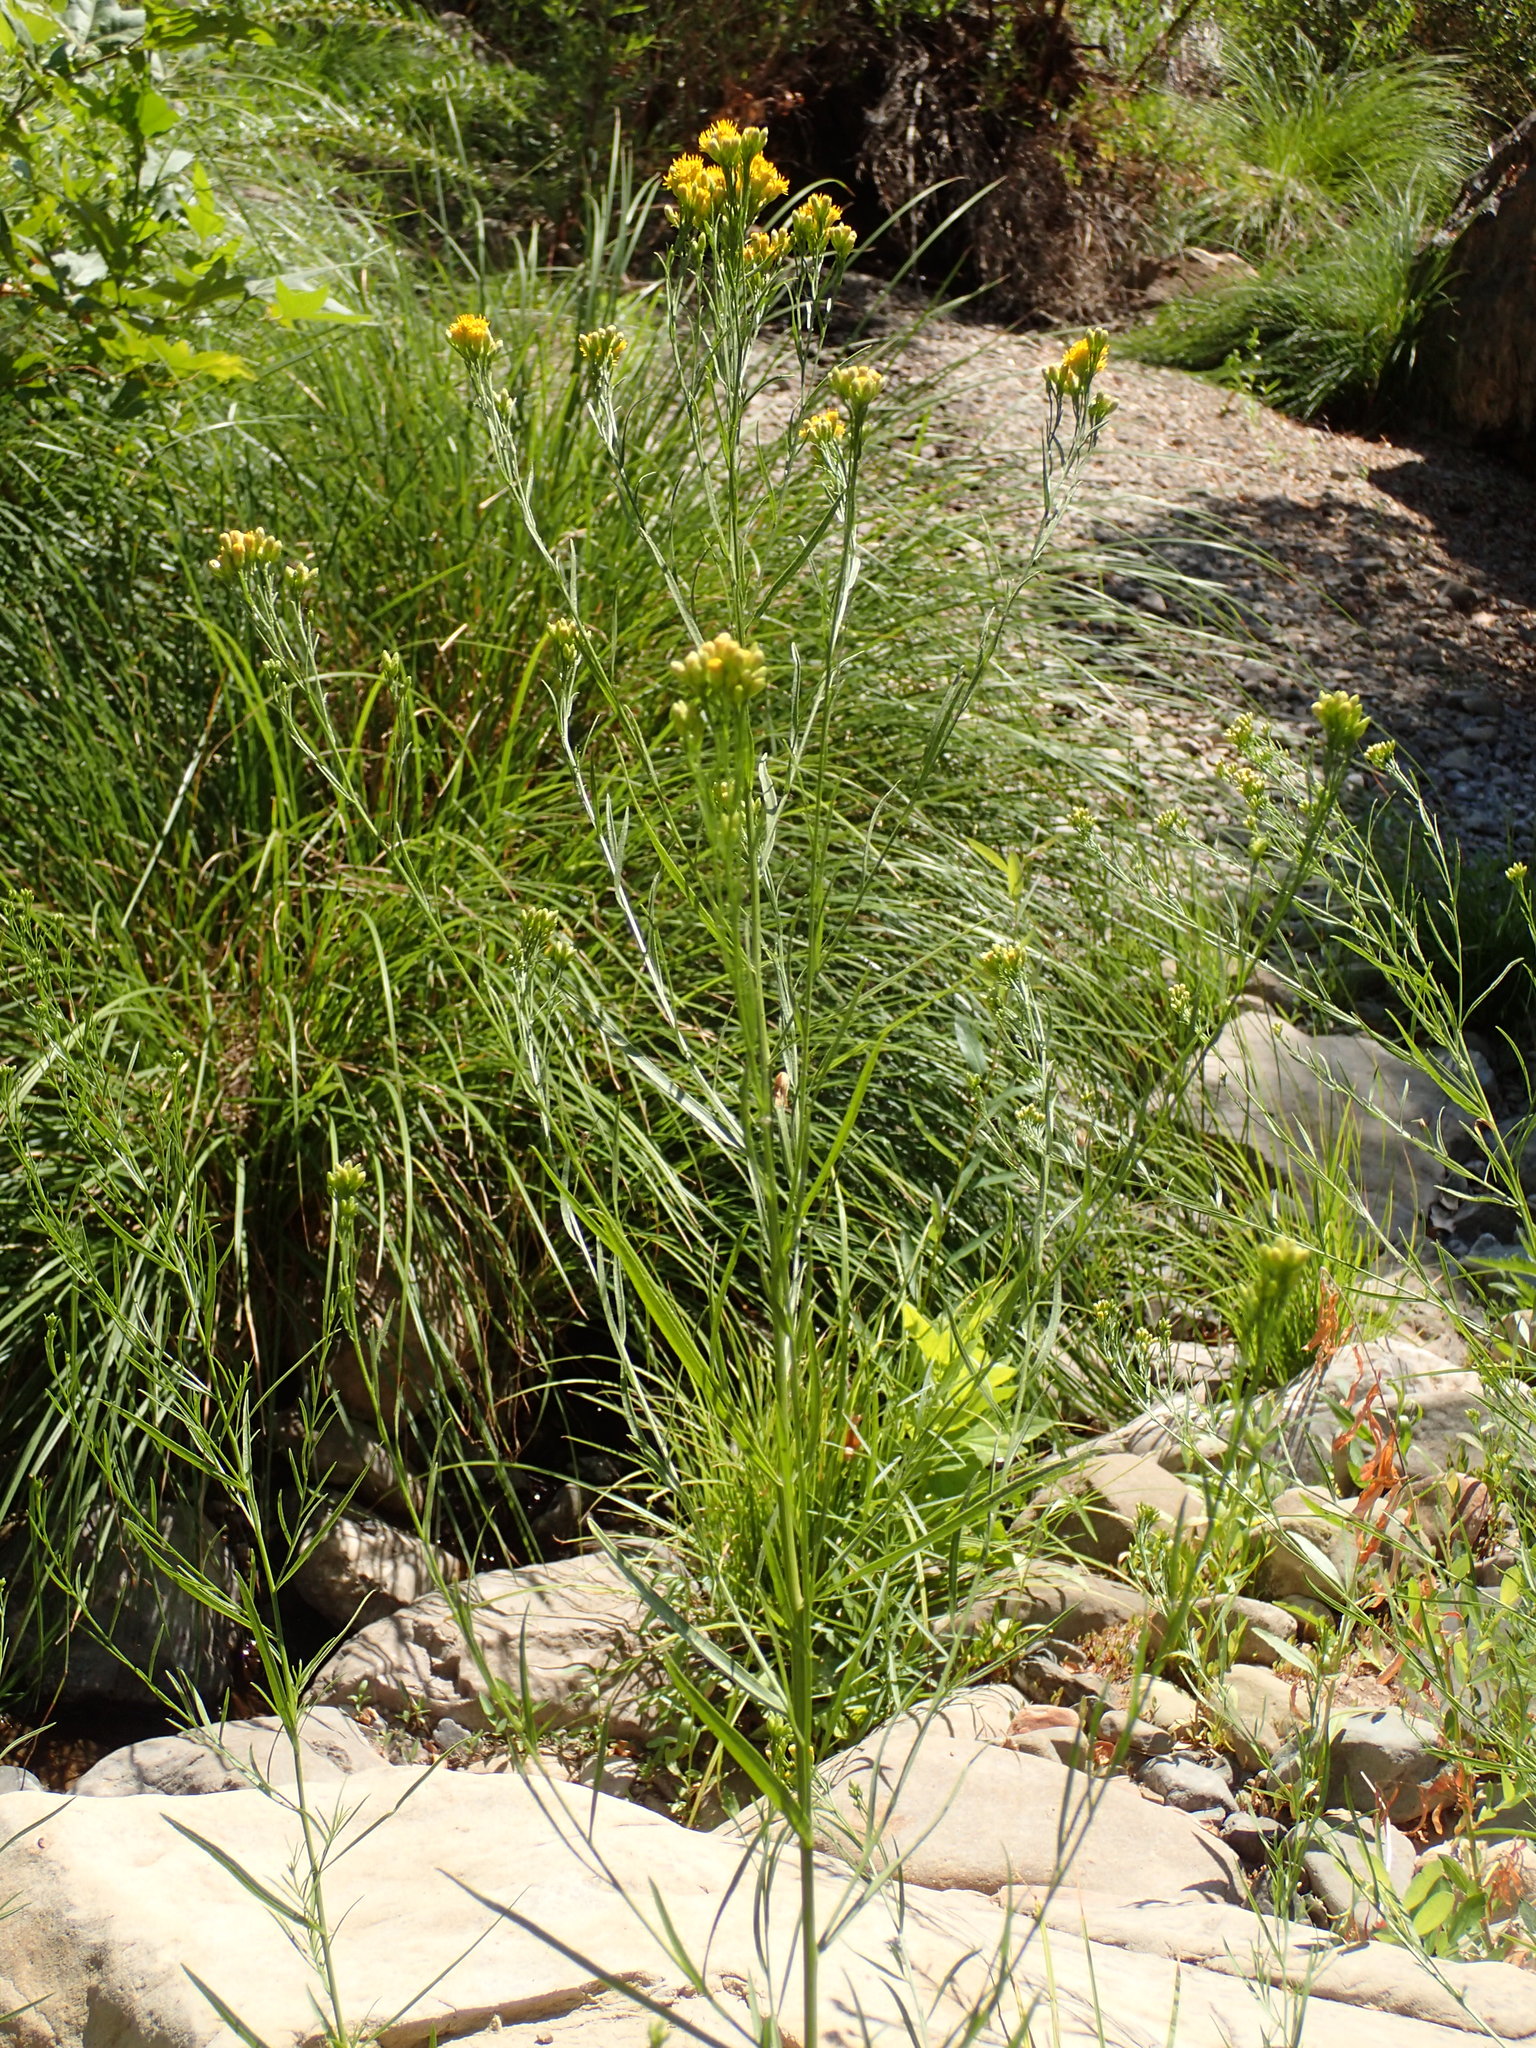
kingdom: Plantae
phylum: Tracheophyta
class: Magnoliopsida
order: Asterales
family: Asteraceae
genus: Euthamia
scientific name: Euthamia occidentalis
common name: Western goldentop
